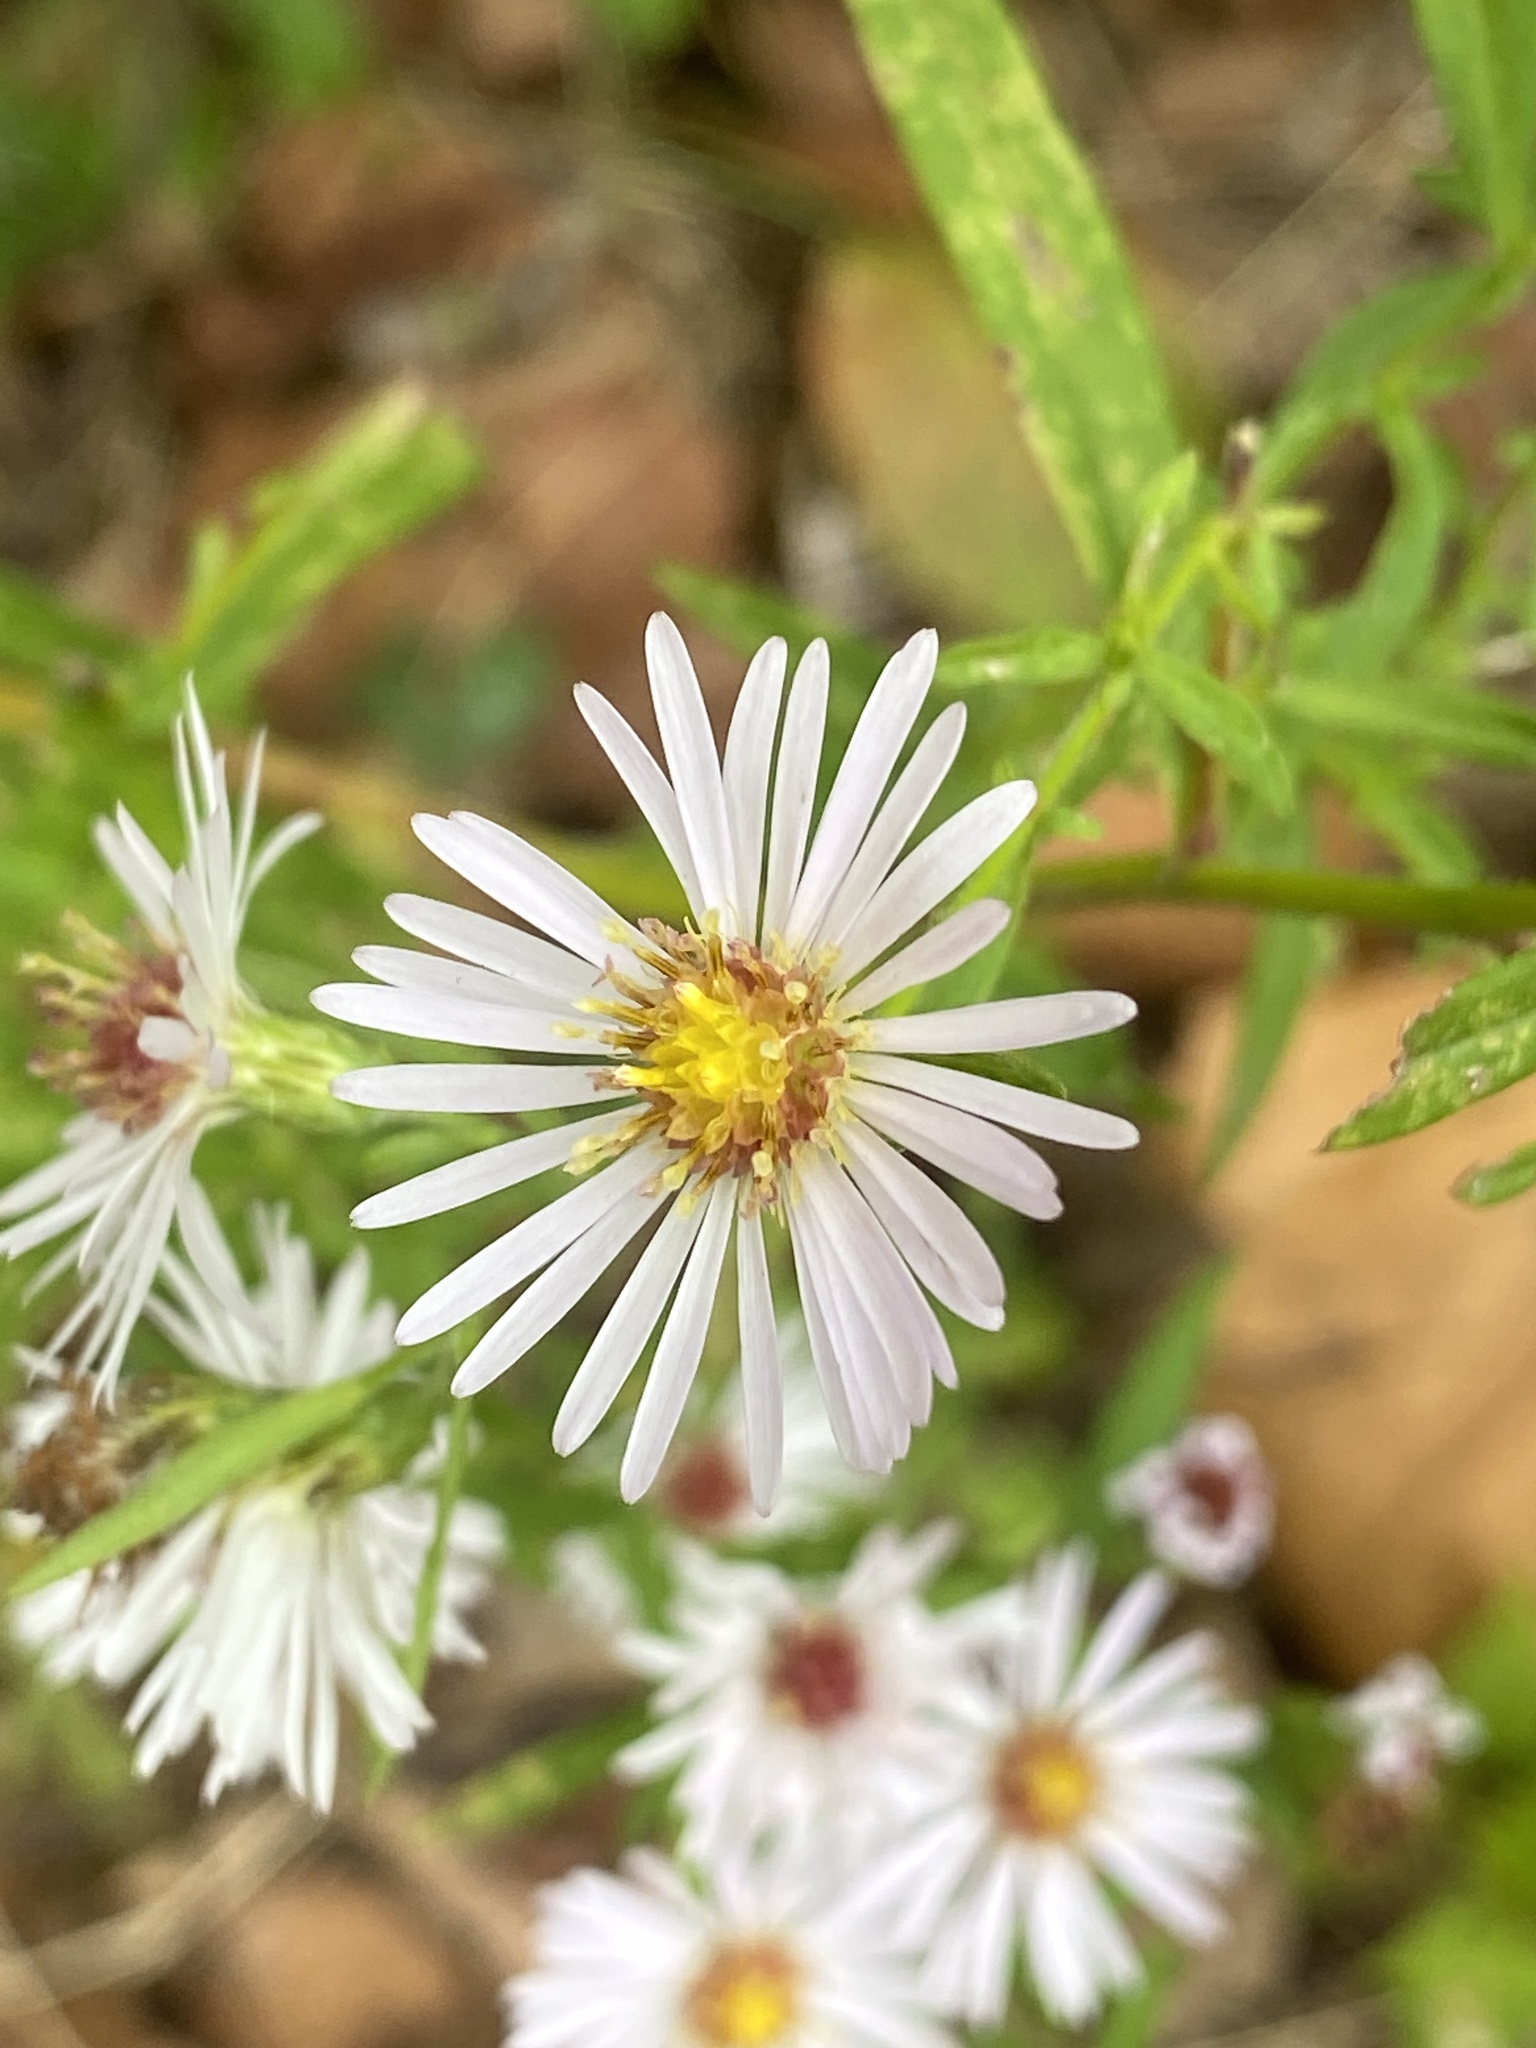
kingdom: Plantae
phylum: Tracheophyta
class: Magnoliopsida
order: Asterales
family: Asteraceae
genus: Symphyotrichum
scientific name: Symphyotrichum lanceolatum
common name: Panicled aster
